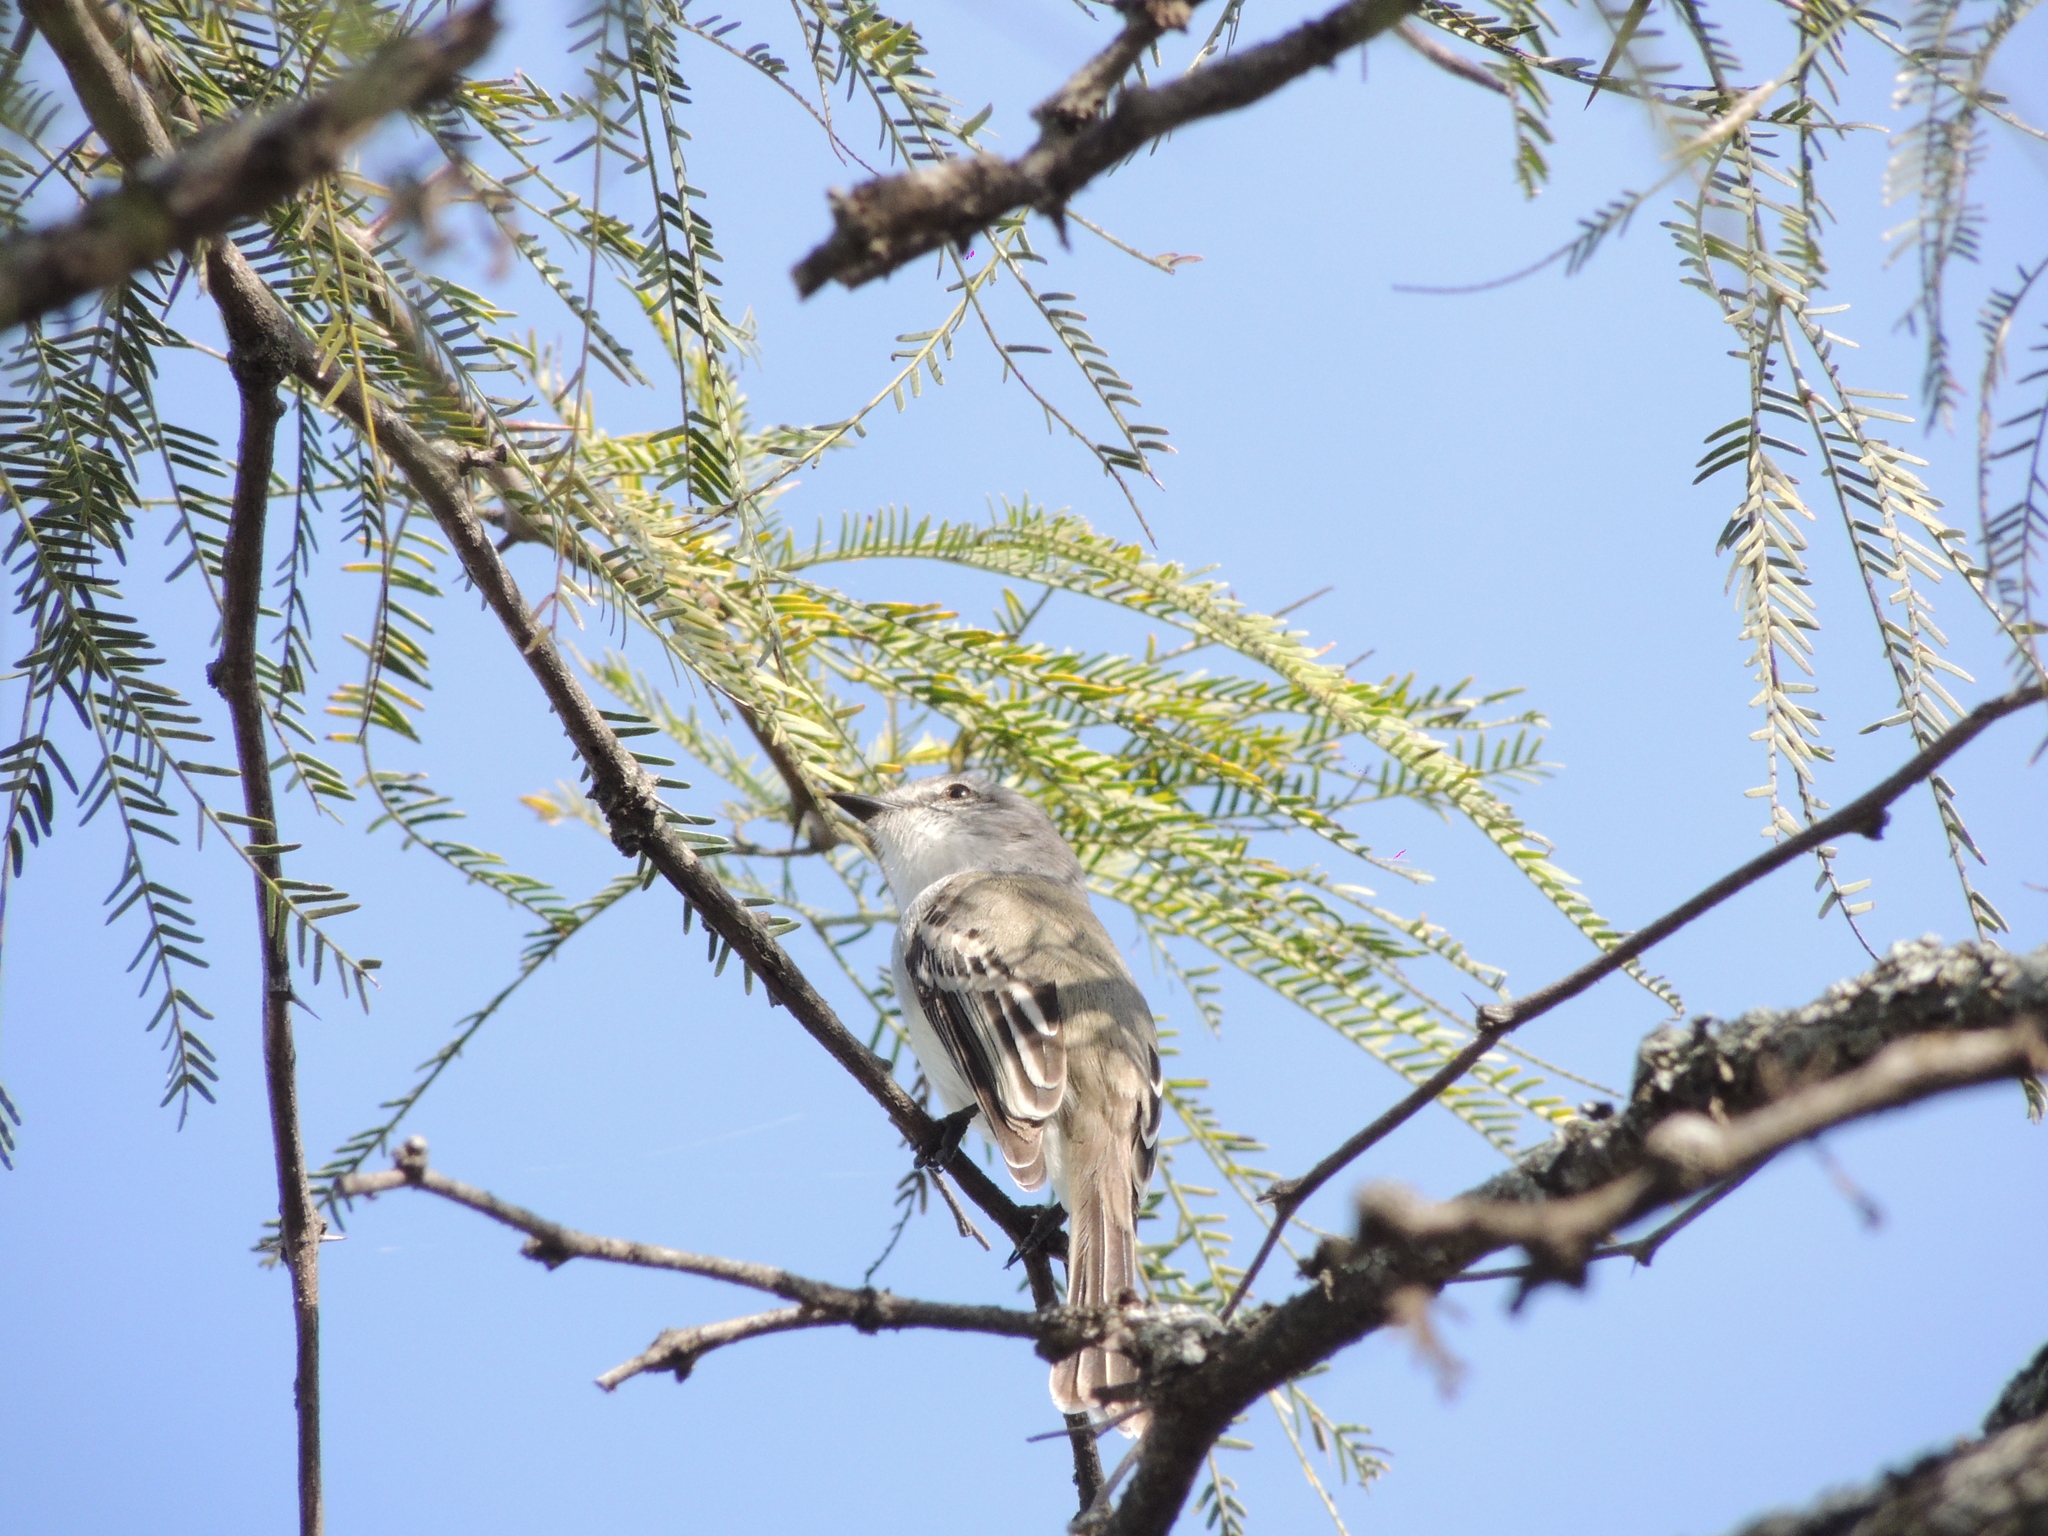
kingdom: Animalia
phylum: Chordata
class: Aves
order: Passeriformes
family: Tyrannidae
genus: Suiriri
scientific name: Suiriri suiriri
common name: Suiriri flycatcher
